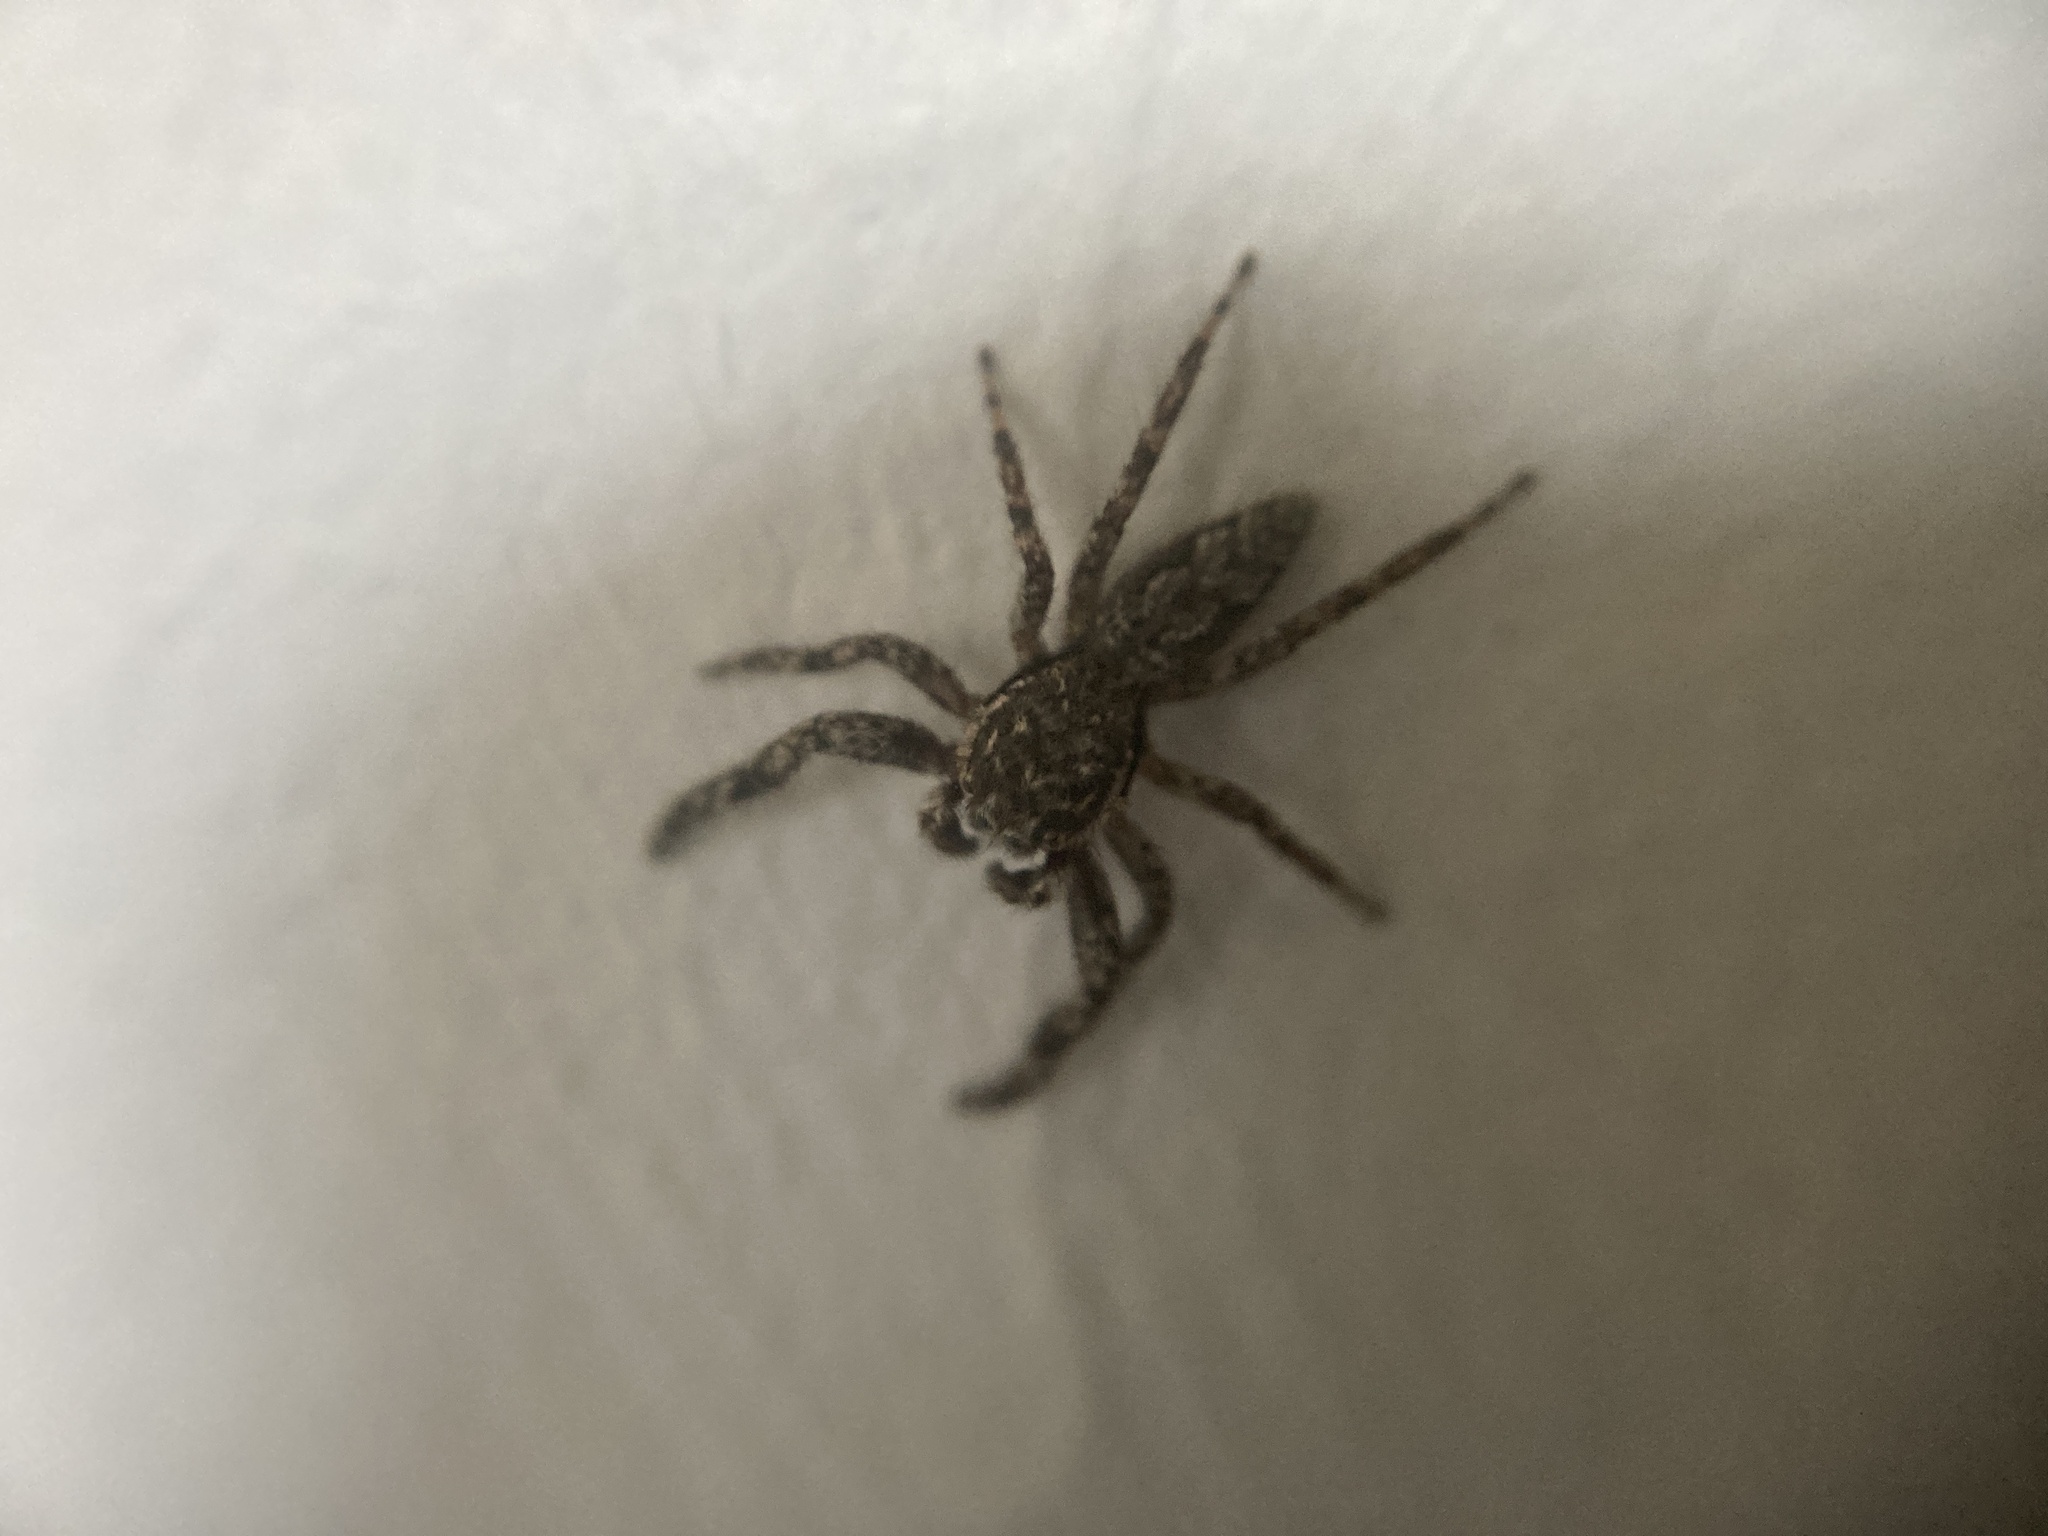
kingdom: Animalia
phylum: Arthropoda
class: Arachnida
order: Araneae
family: Salticidae
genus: Platycryptus
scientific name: Platycryptus undatus
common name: Tan jumping spider
